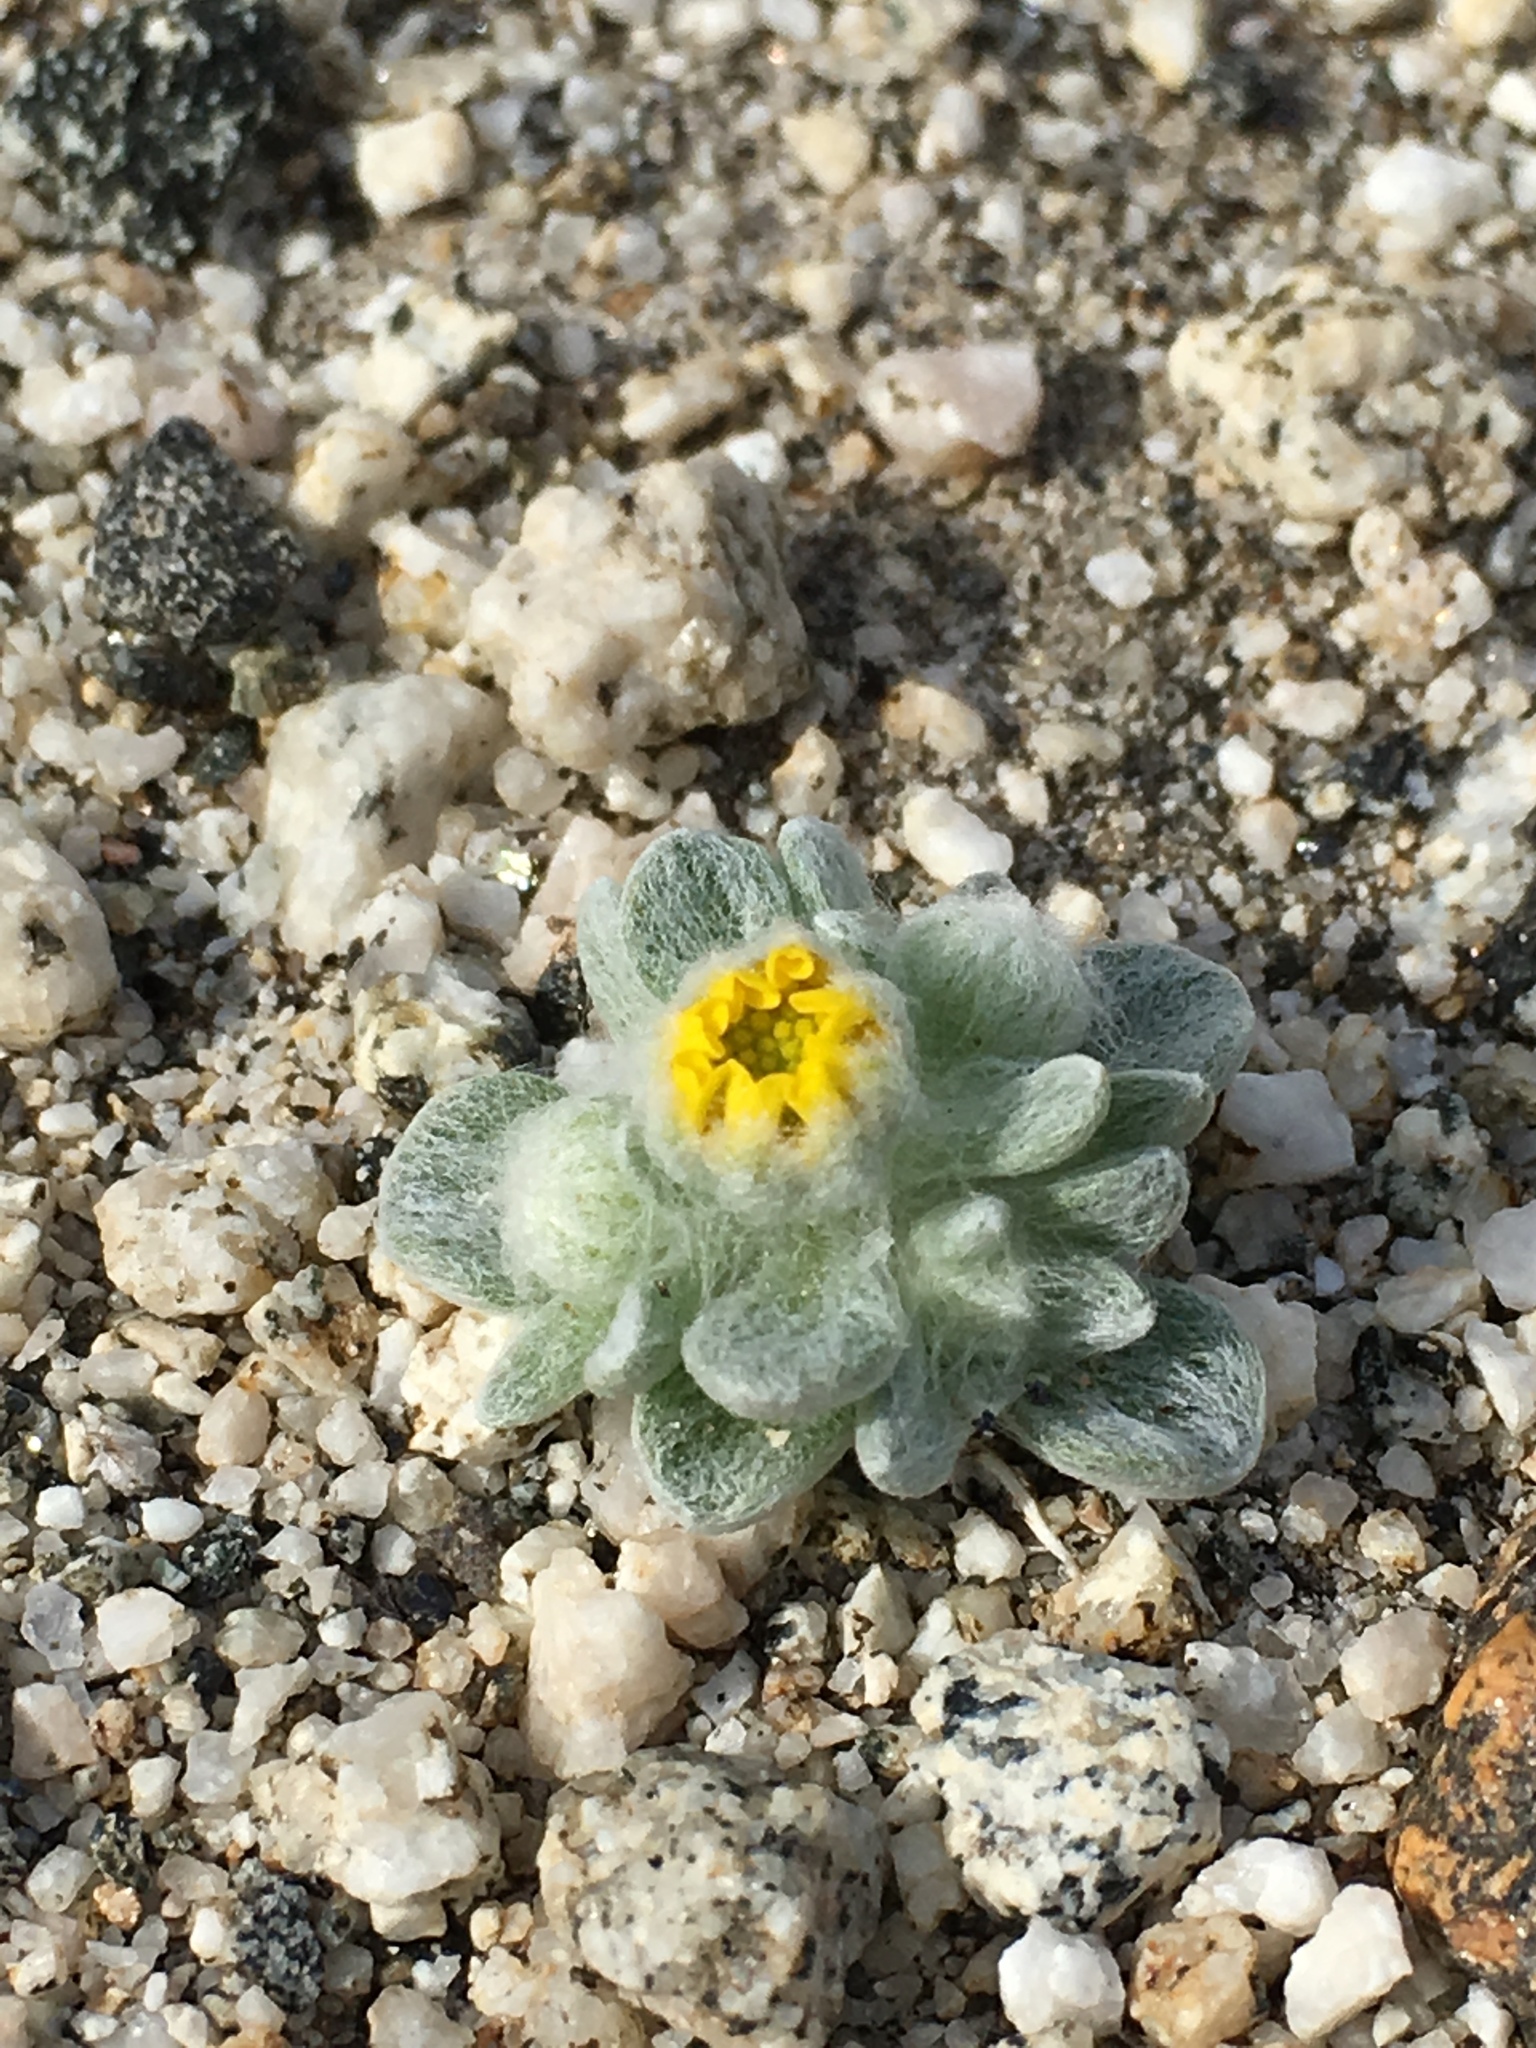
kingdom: Plantae
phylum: Tracheophyta
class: Magnoliopsida
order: Asterales
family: Asteraceae
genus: Eriophyllum
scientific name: Eriophyllum wallacei
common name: Wallace's woolly daisy
